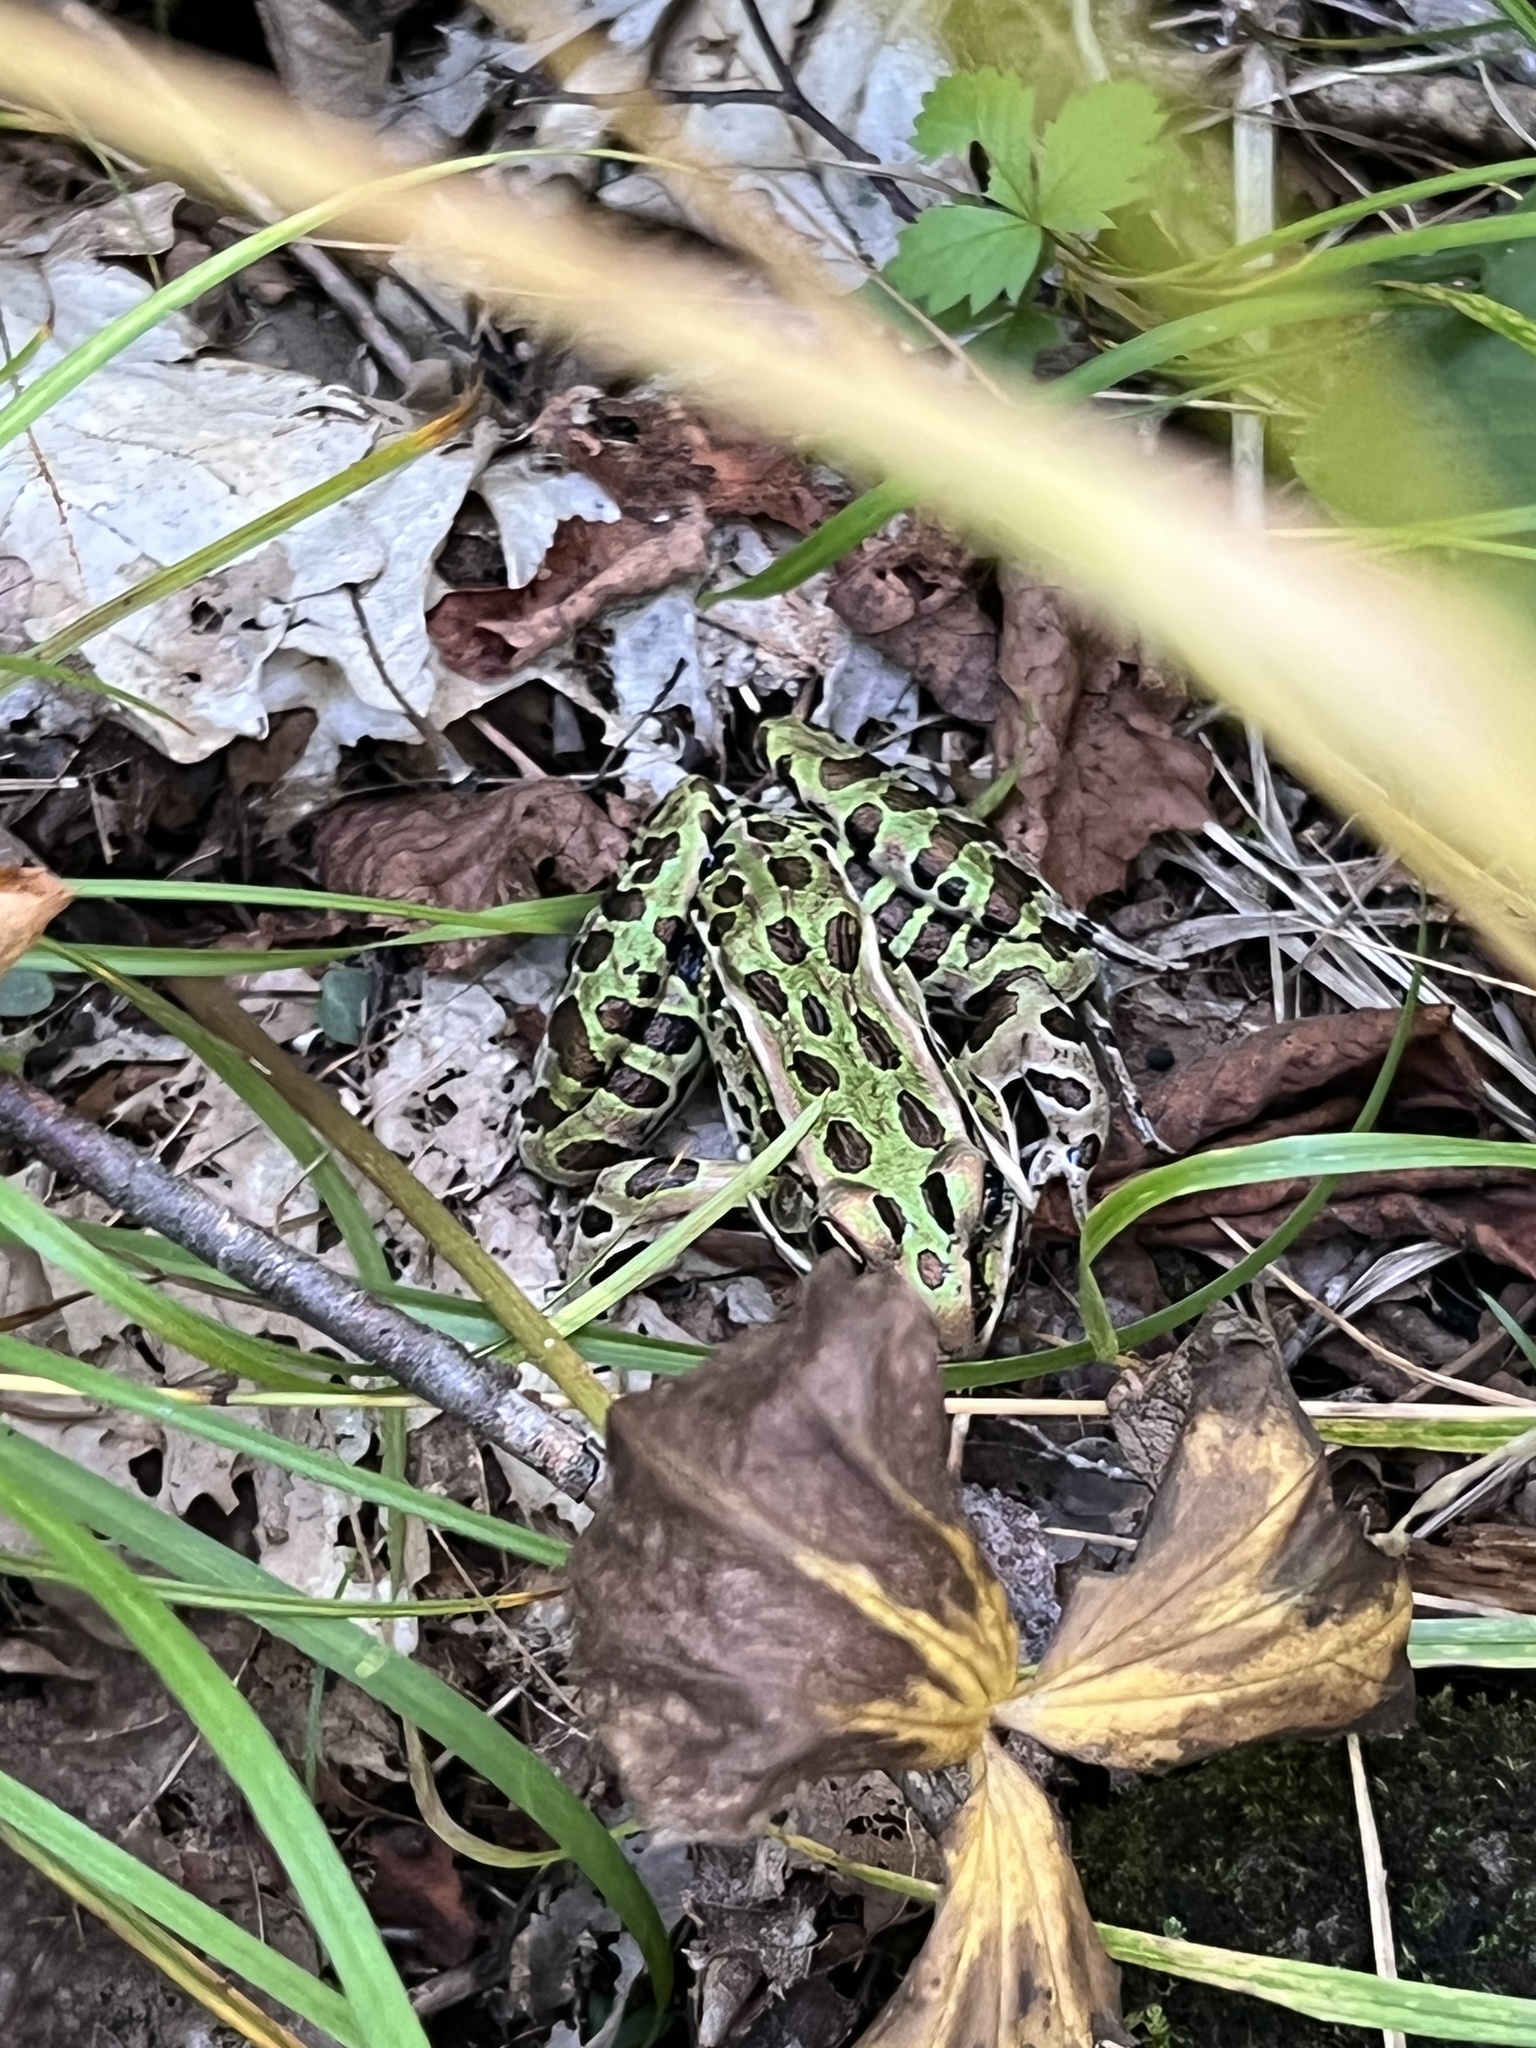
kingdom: Animalia
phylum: Chordata
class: Amphibia
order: Anura
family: Ranidae
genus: Lithobates
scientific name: Lithobates pipiens
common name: Northern leopard frog
